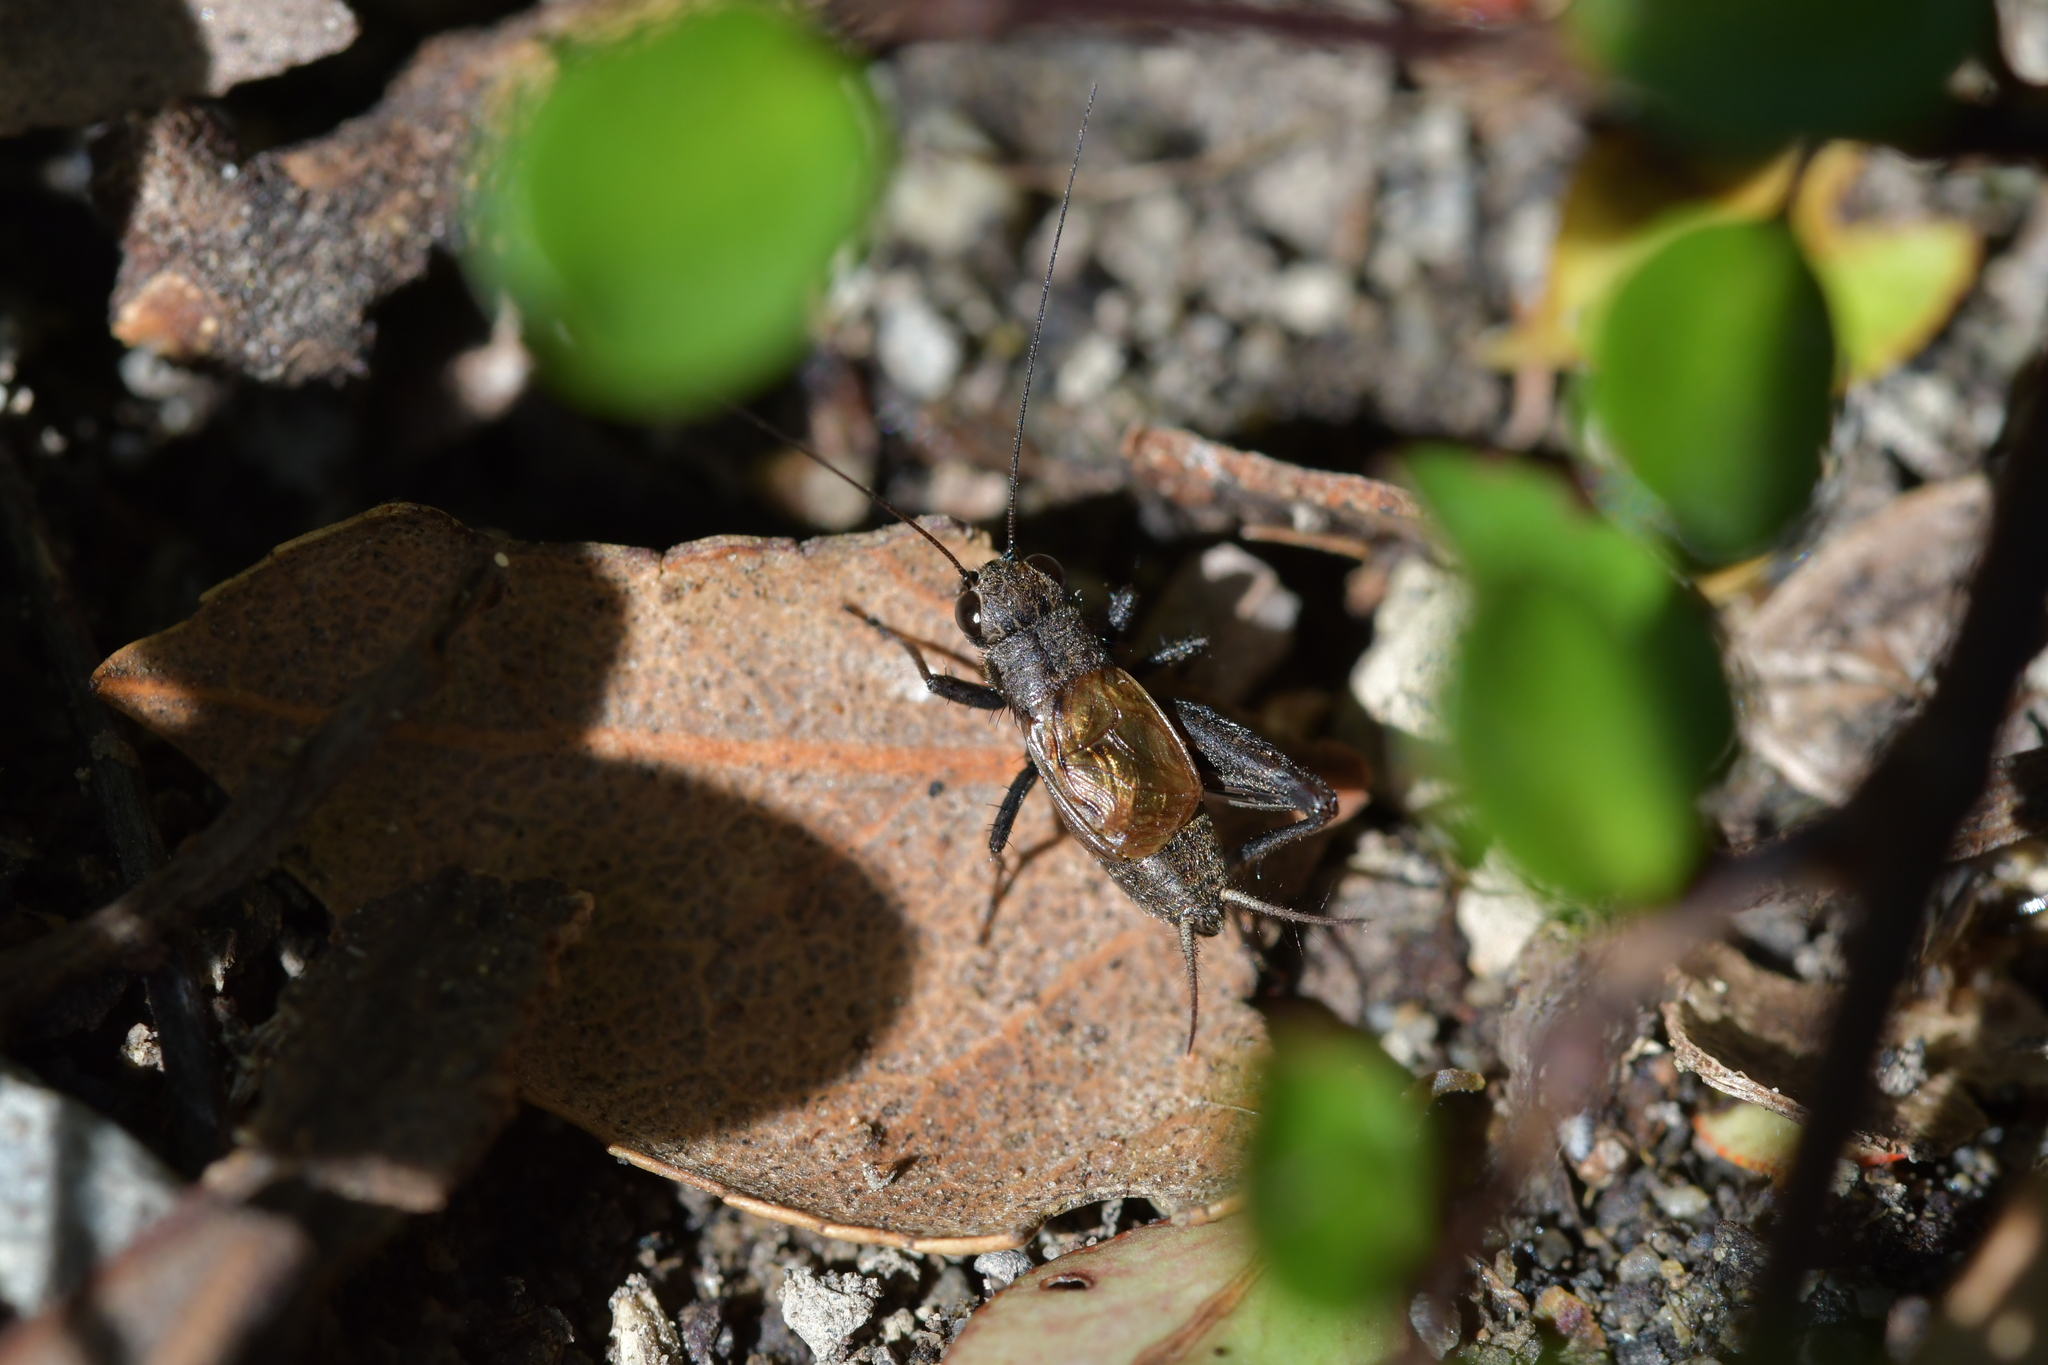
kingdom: Animalia
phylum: Arthropoda
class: Insecta
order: Orthoptera
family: Trigonidiidae
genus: Bobilla
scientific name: Bobilla nigrovus
